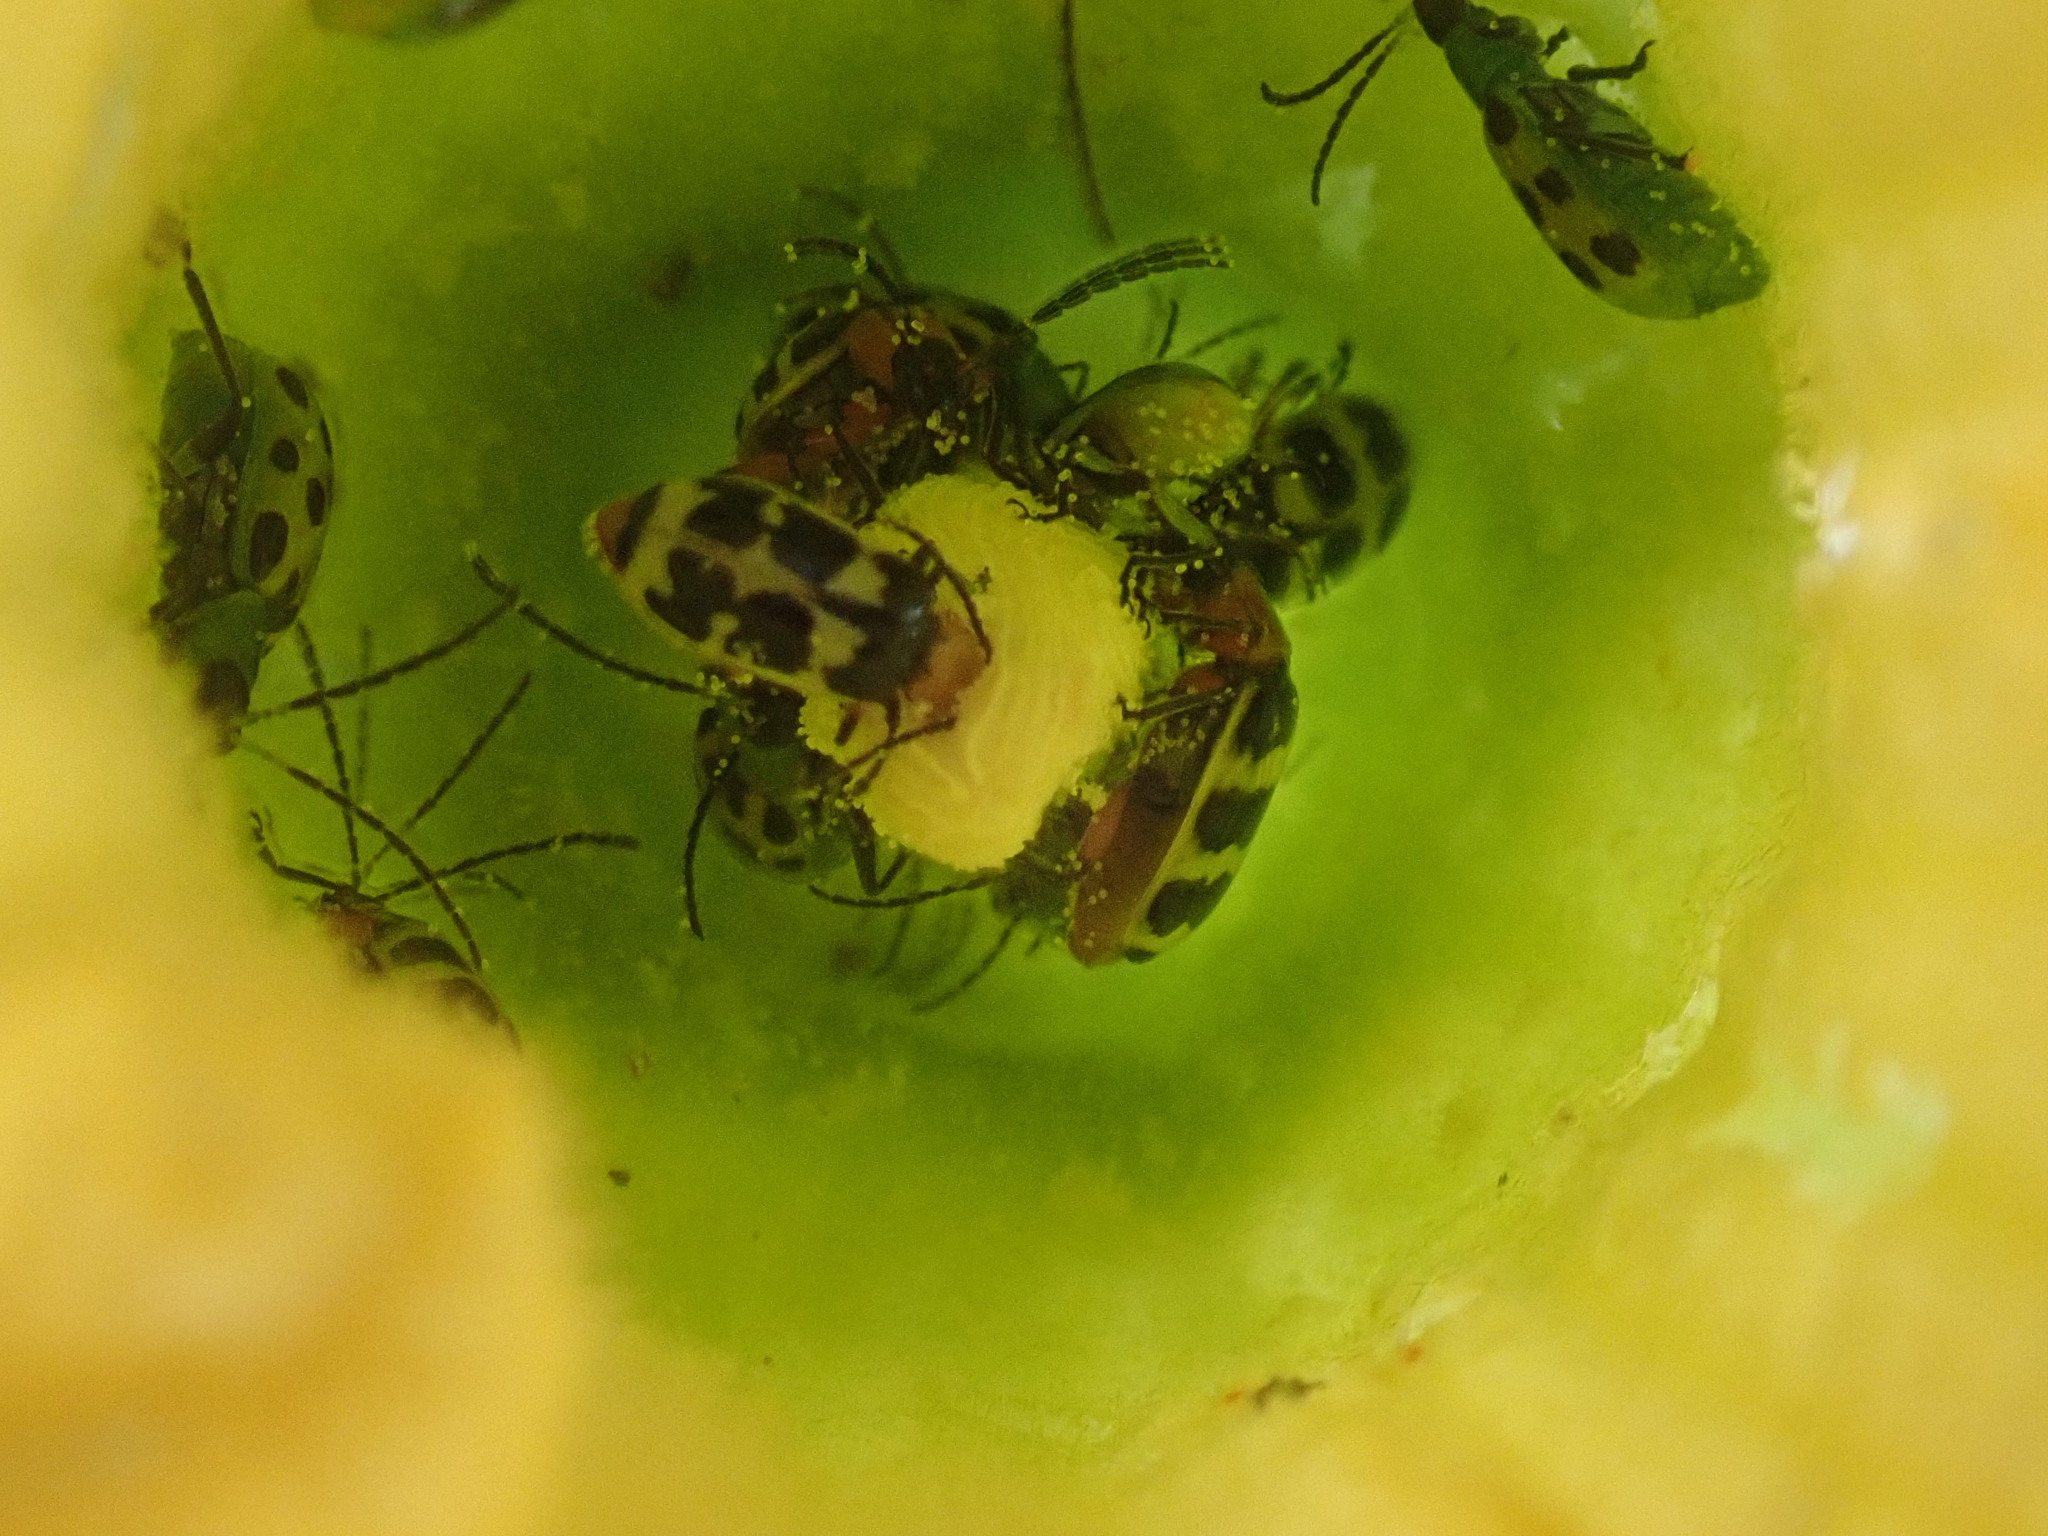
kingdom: Animalia
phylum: Arthropoda
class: Insecta
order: Coleoptera
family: Chrysomelidae
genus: Diabrotica
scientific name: Diabrotica undecimpunctata
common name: Spotted cucumber beetle
